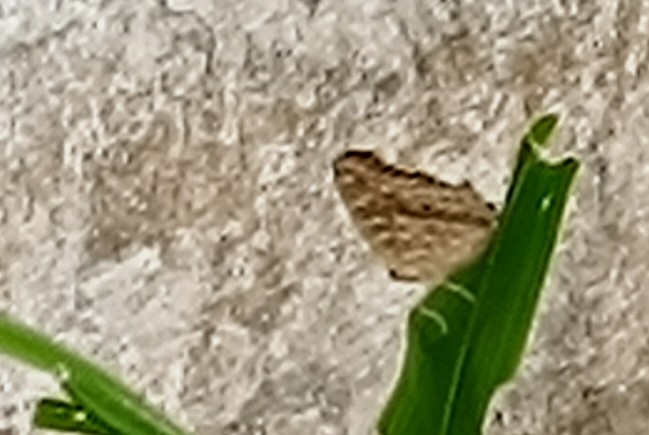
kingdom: Animalia
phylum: Arthropoda
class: Insecta
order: Lepidoptera
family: Nymphalidae
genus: Junonia
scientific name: Junonia lemonias
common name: Lemon pansy
